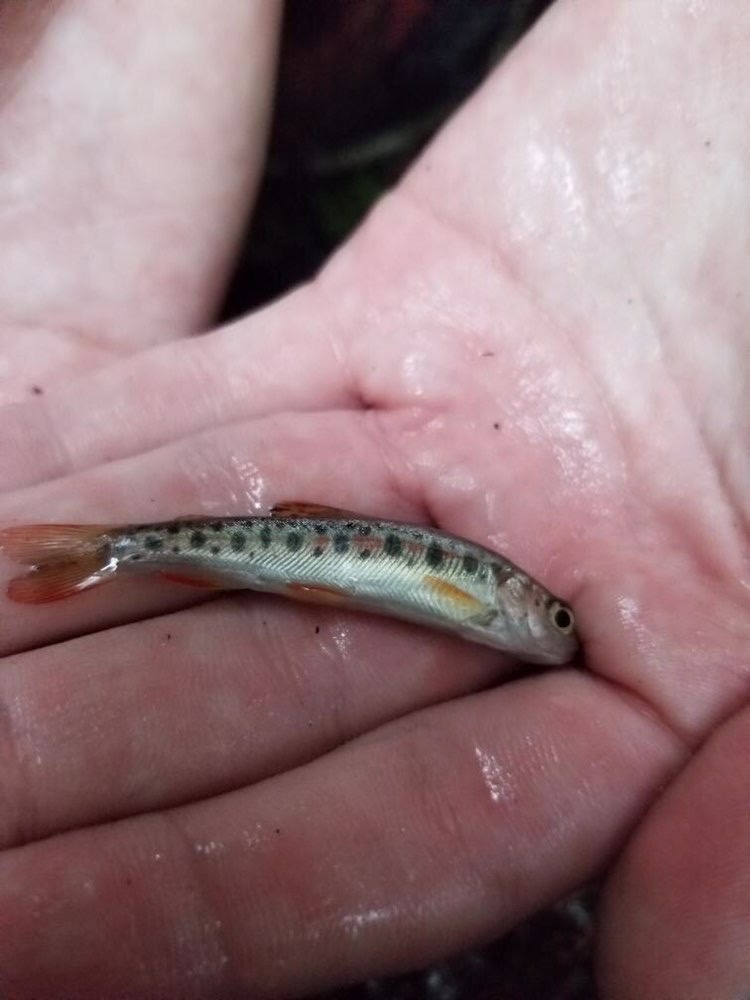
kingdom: Animalia
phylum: Chordata
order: Salmoniformes
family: Salmonidae
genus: Oncorhynchus
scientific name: Oncorhynchus mykiss
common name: Rainbow trout
